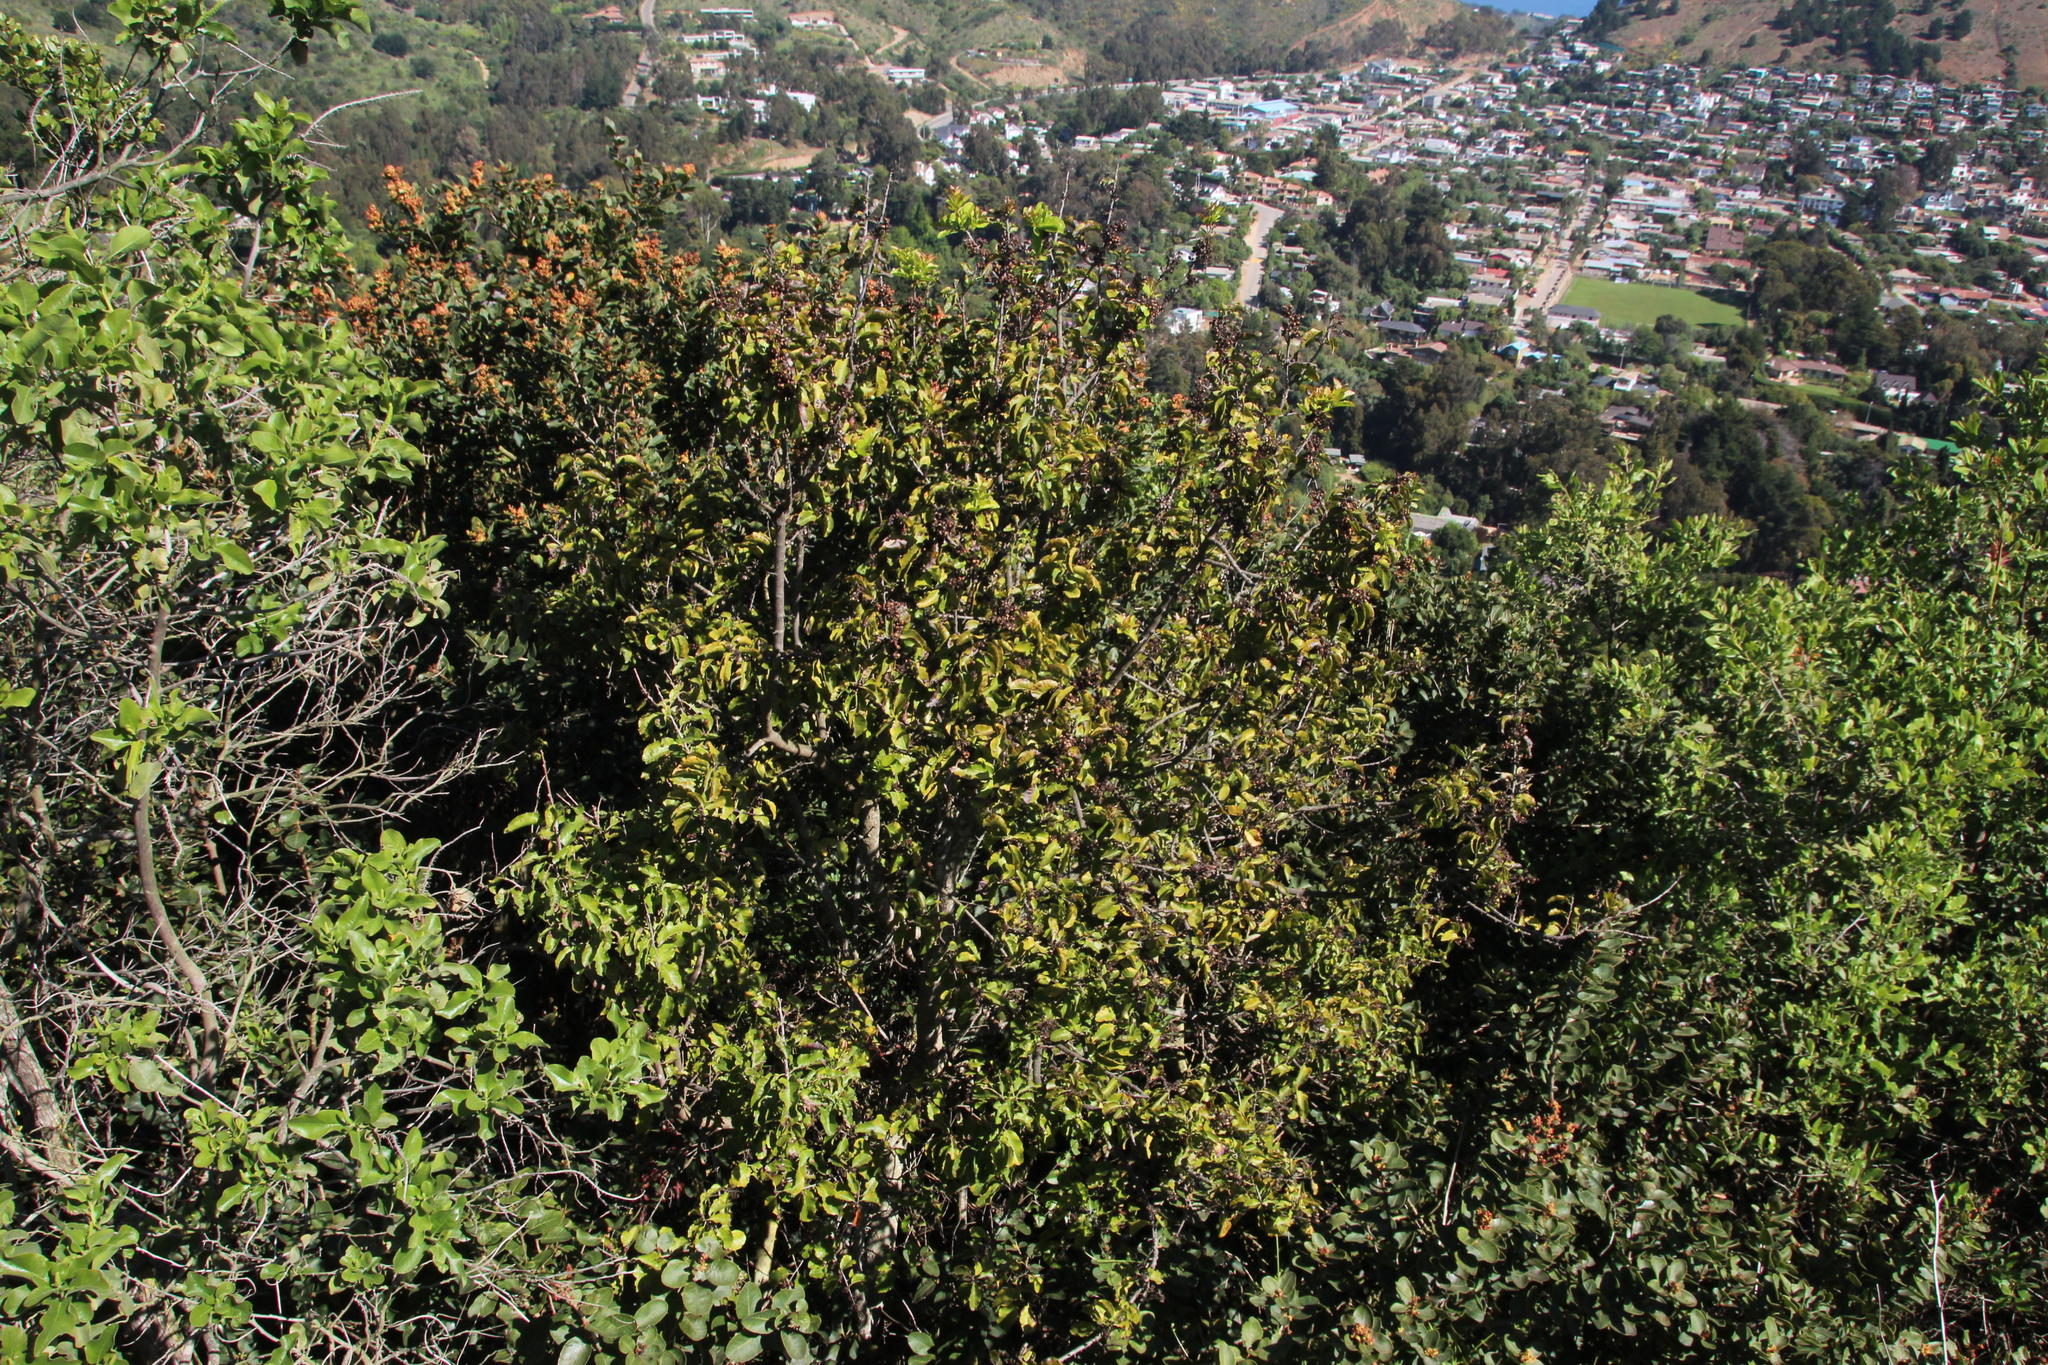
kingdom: Plantae
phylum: Tracheophyta
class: Magnoliopsida
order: Sapindales
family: Anacardiaceae
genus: Schinus
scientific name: Schinus latifolia
